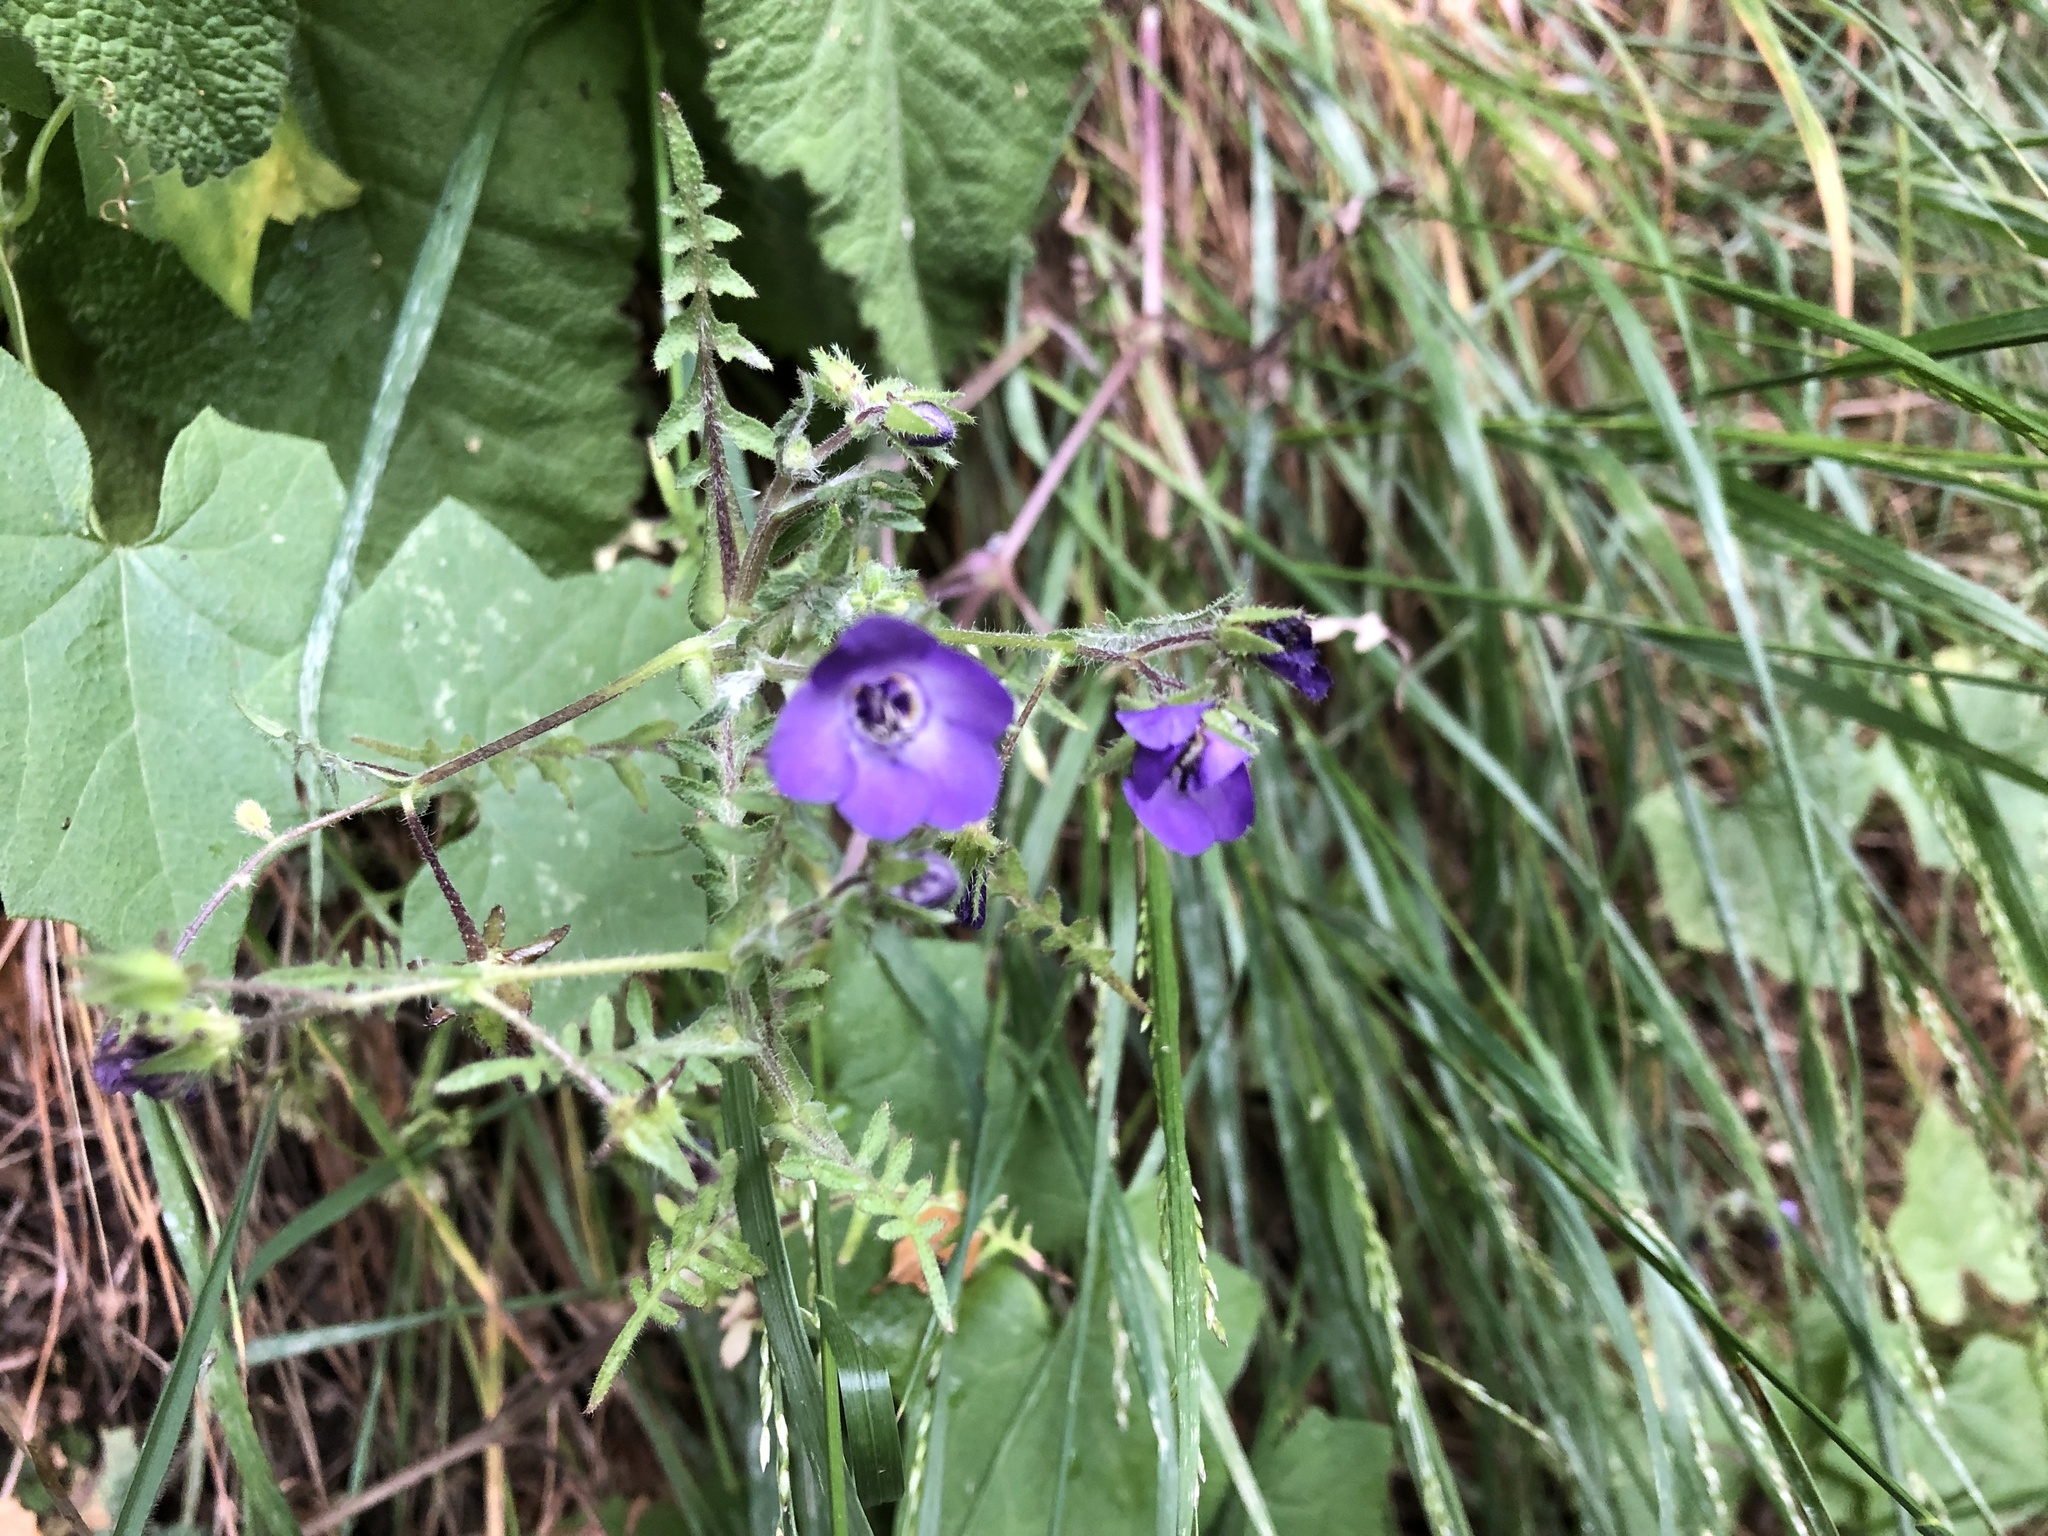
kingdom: Plantae
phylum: Tracheophyta
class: Magnoliopsida
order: Boraginales
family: Hydrophyllaceae
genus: Pholistoma
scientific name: Pholistoma auritum
